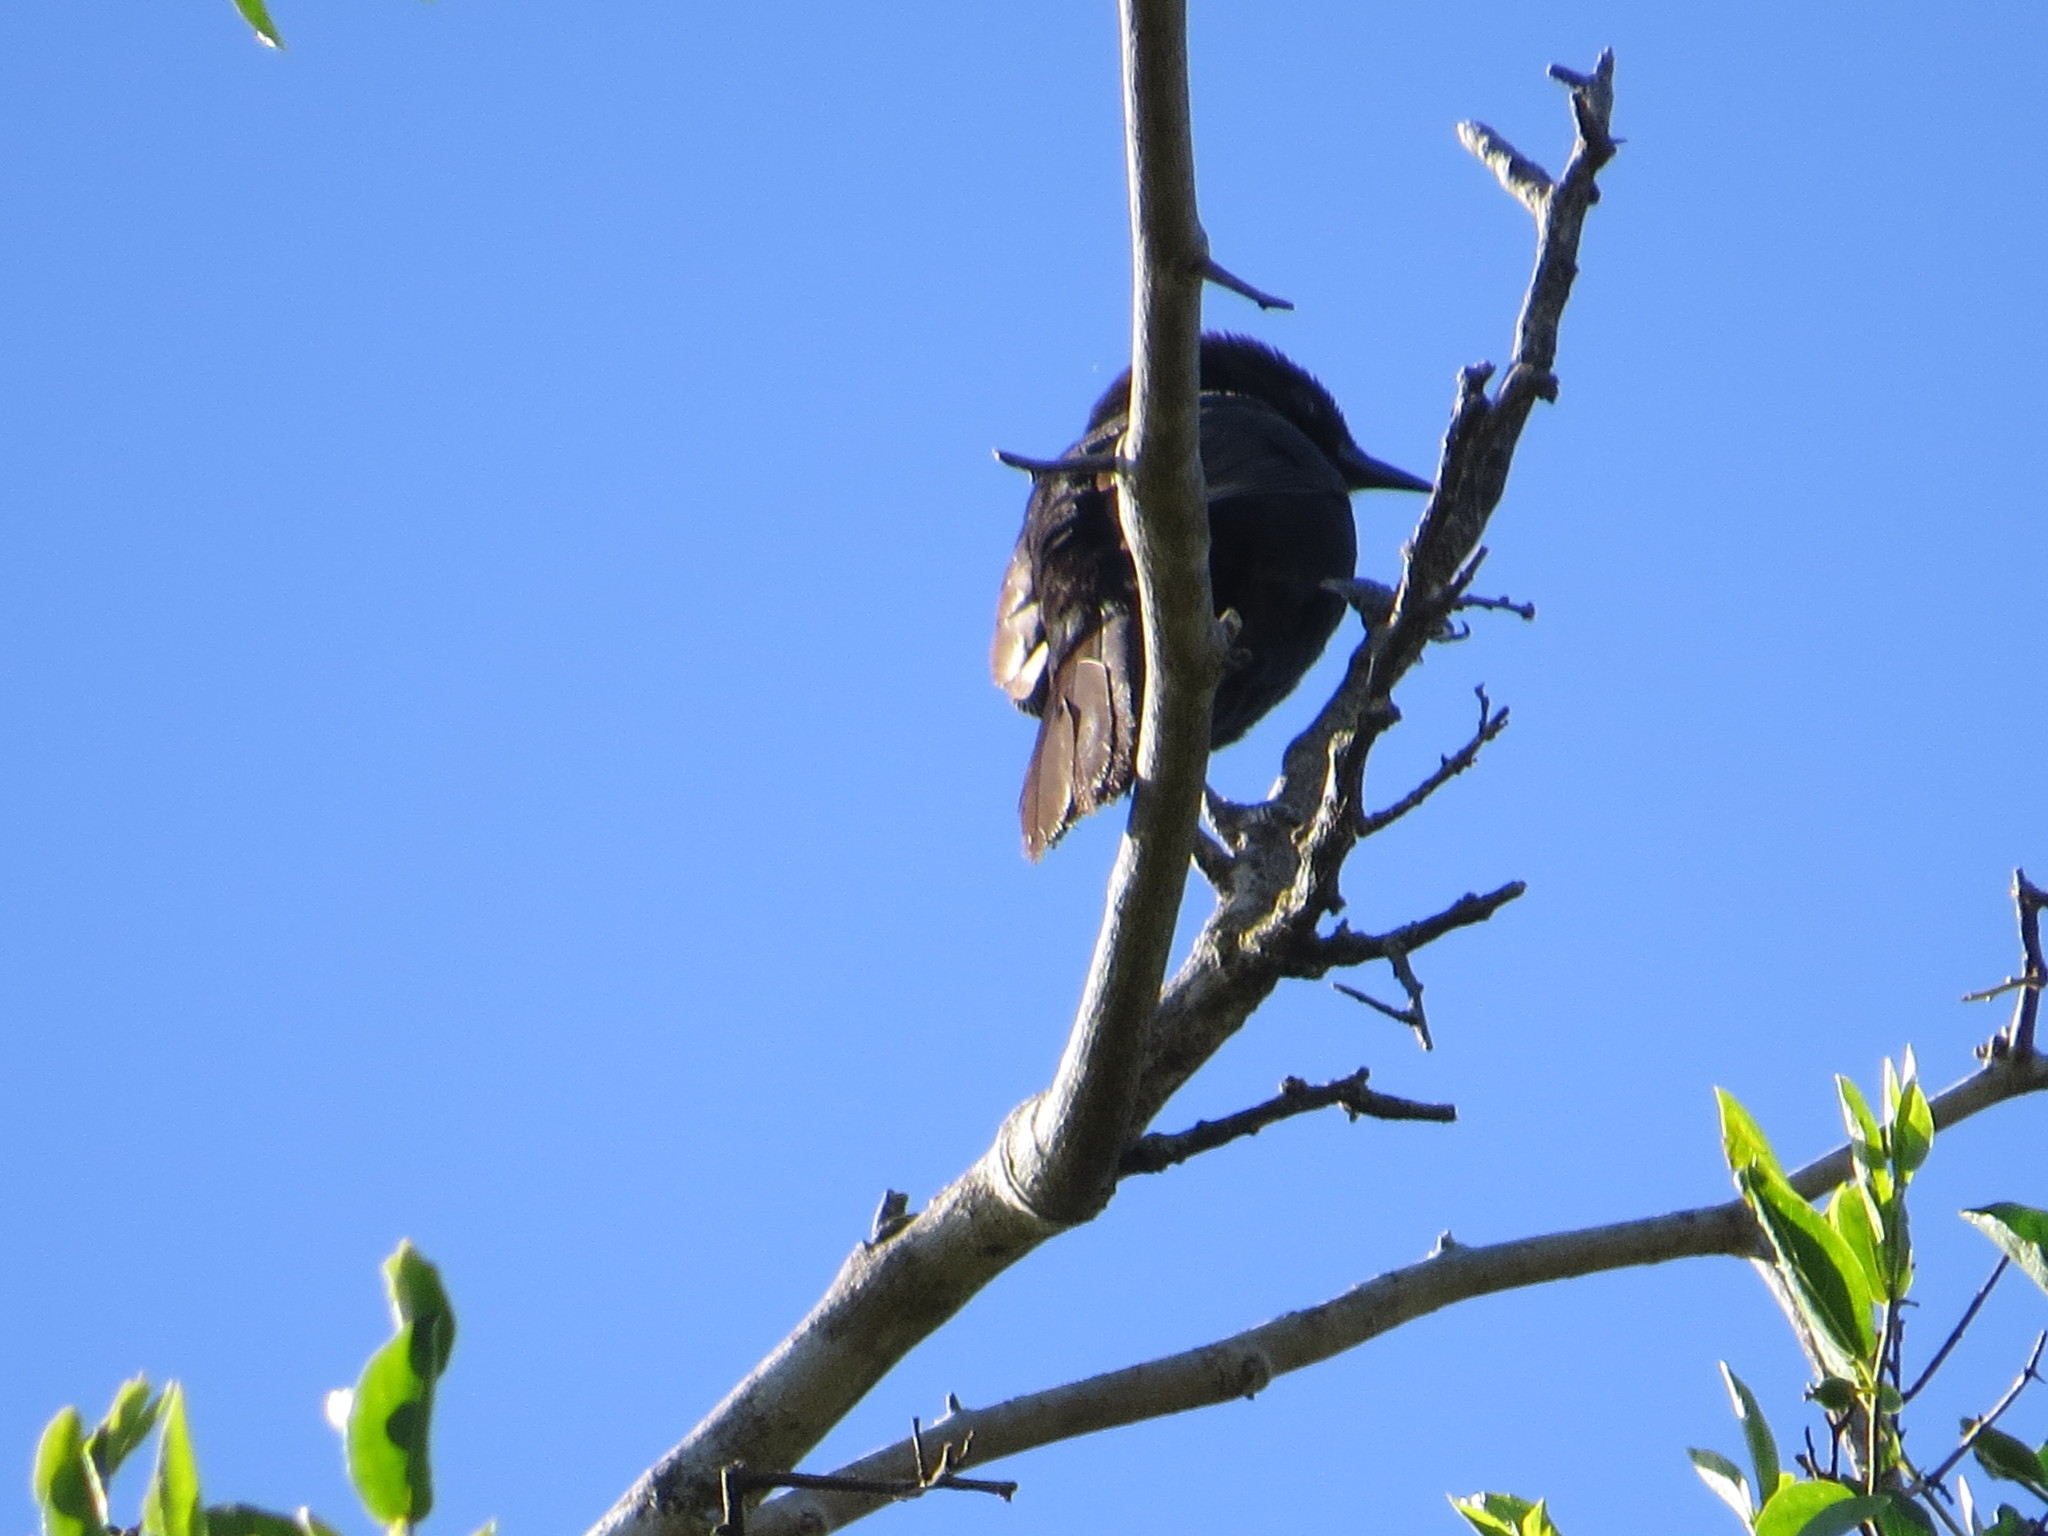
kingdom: Animalia
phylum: Chordata
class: Aves
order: Passeriformes
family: Icteridae
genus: Icterus
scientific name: Icterus cayanensis
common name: Epaulet oriole
